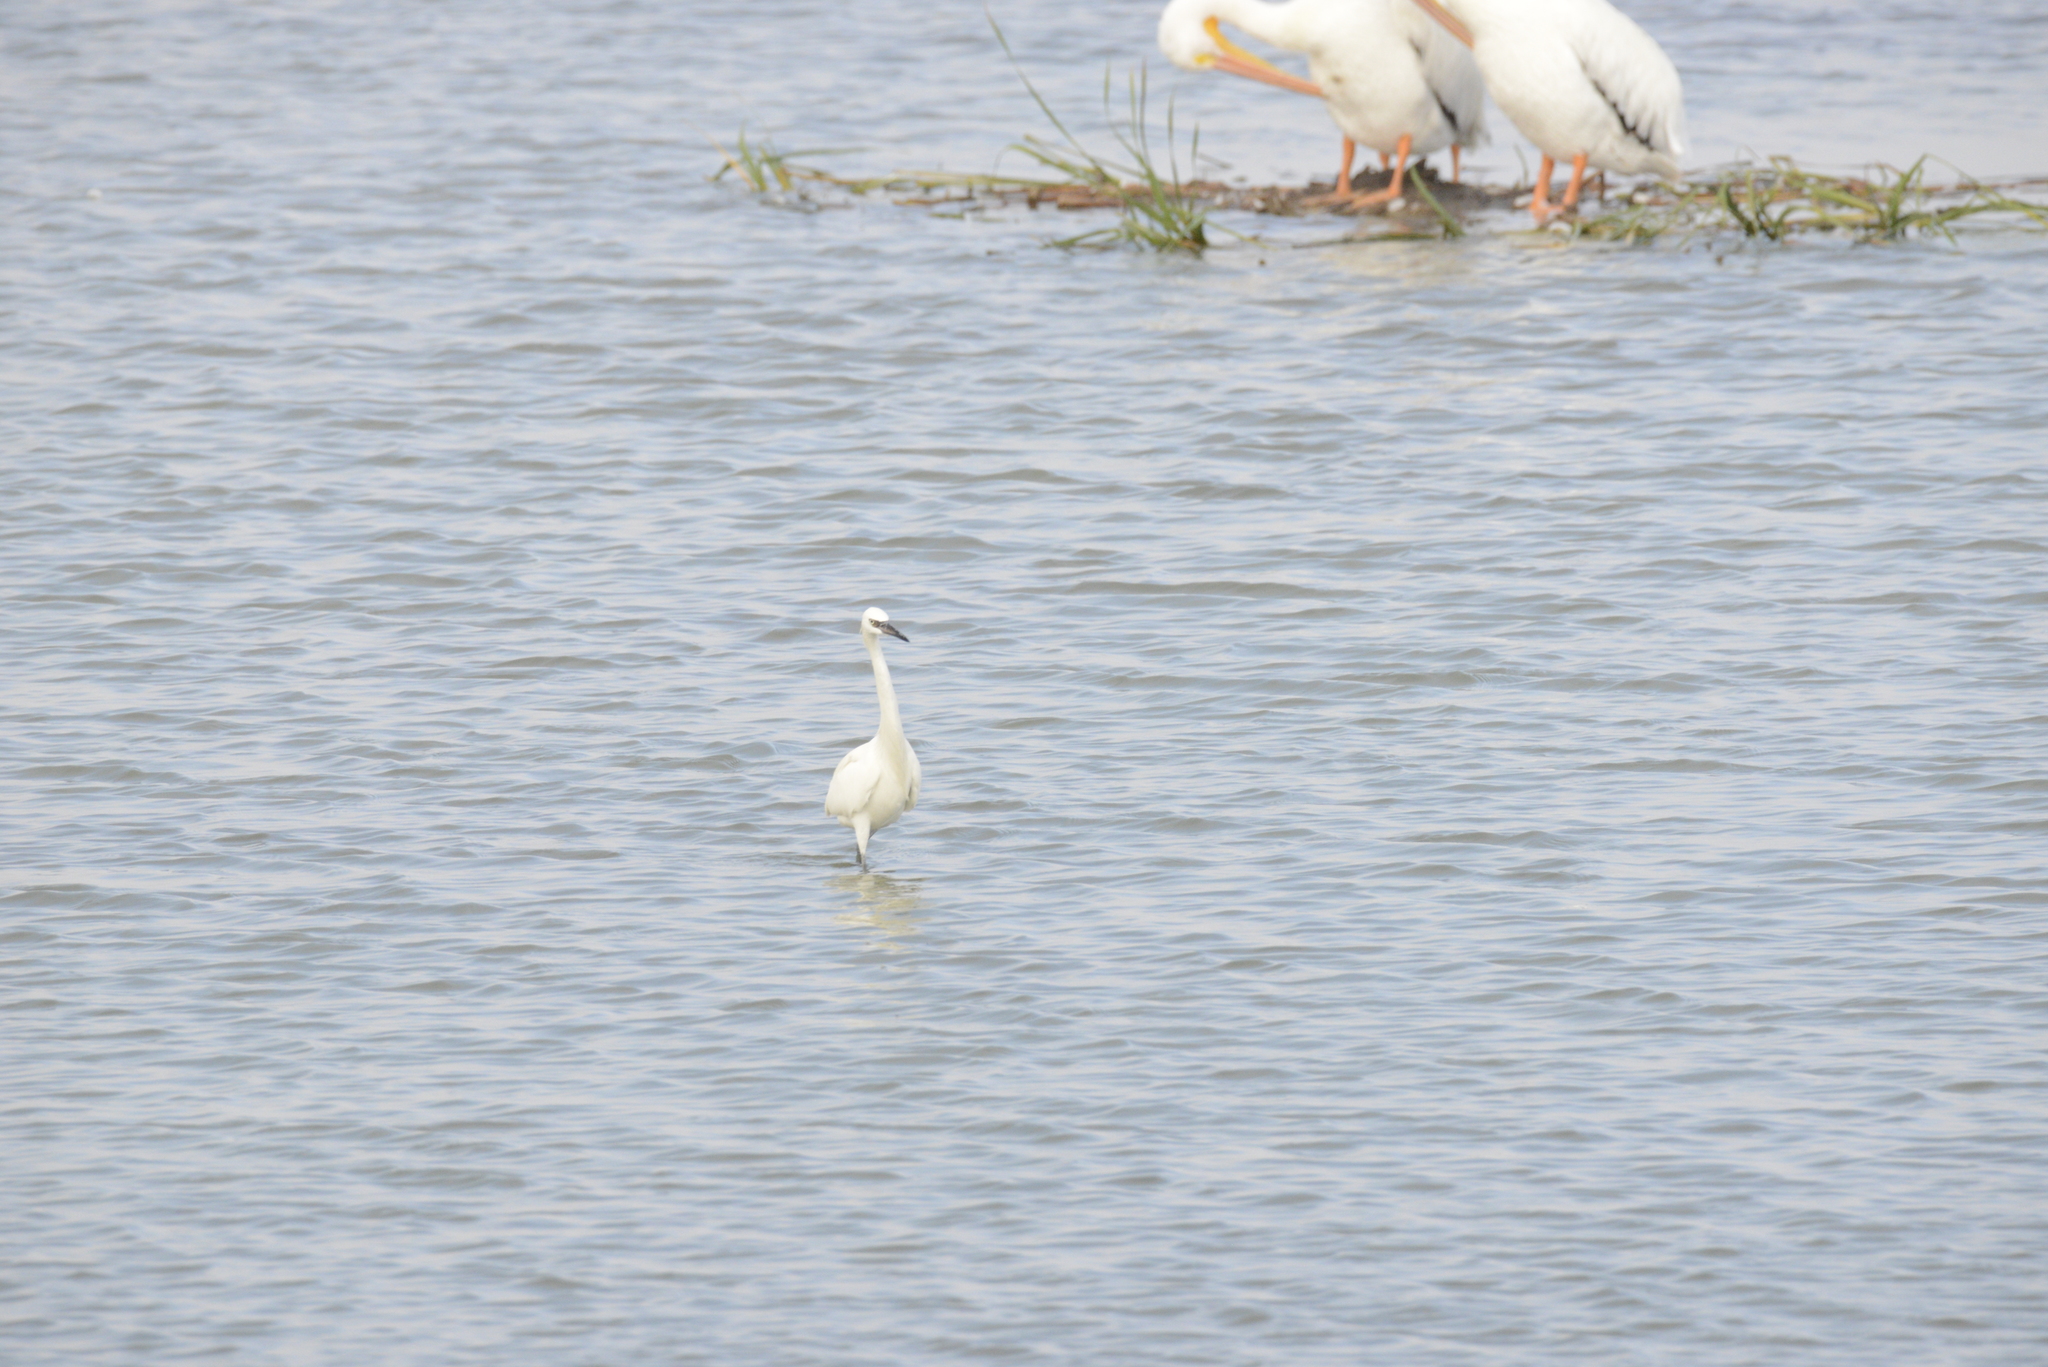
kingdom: Animalia
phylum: Chordata
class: Aves
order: Pelecaniformes
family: Ardeidae
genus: Egretta
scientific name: Egretta rufescens
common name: Reddish egret
